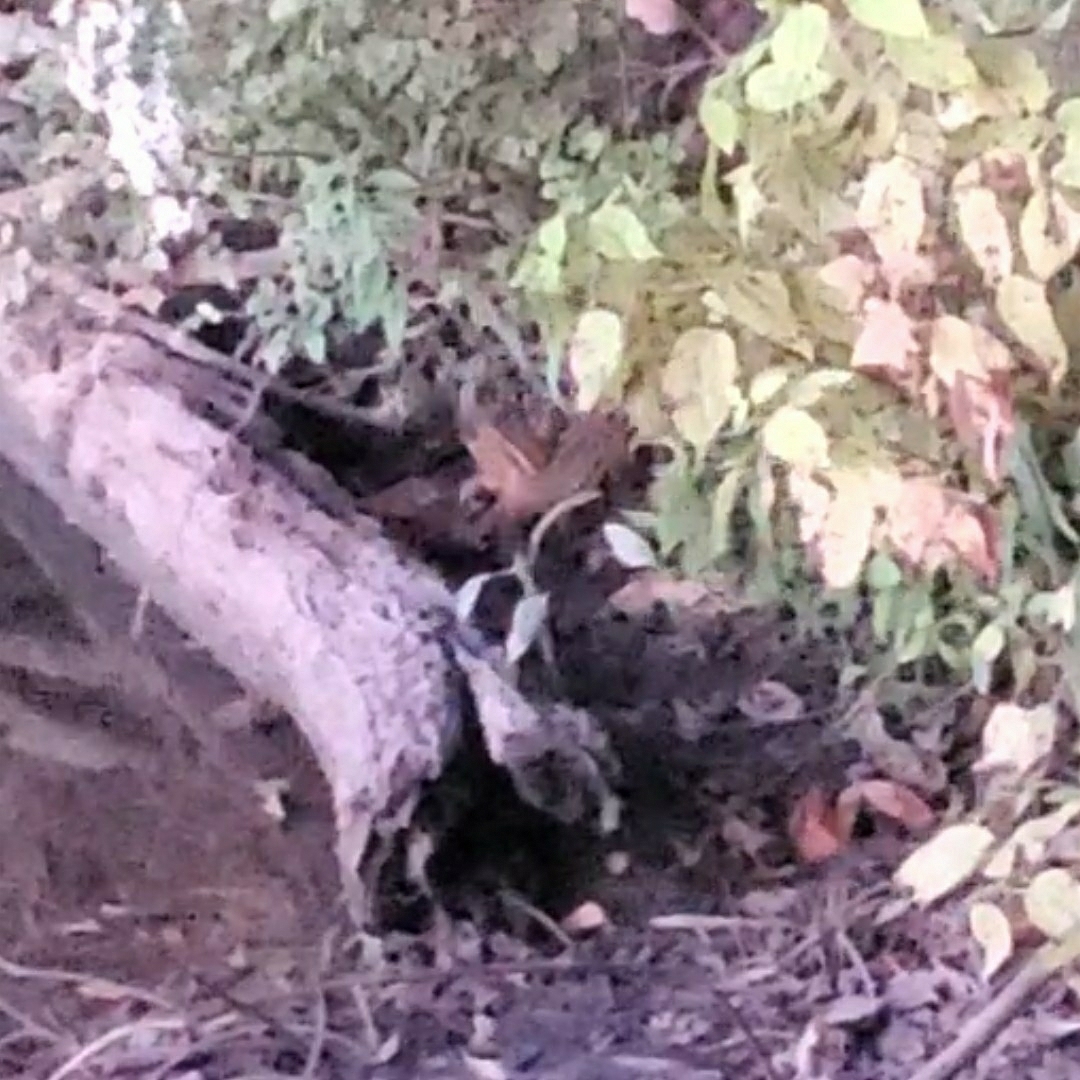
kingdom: Animalia
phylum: Chordata
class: Mammalia
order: Rodentia
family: Sciuridae
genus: Tamias
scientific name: Tamias striatus
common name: Eastern chipmunk
